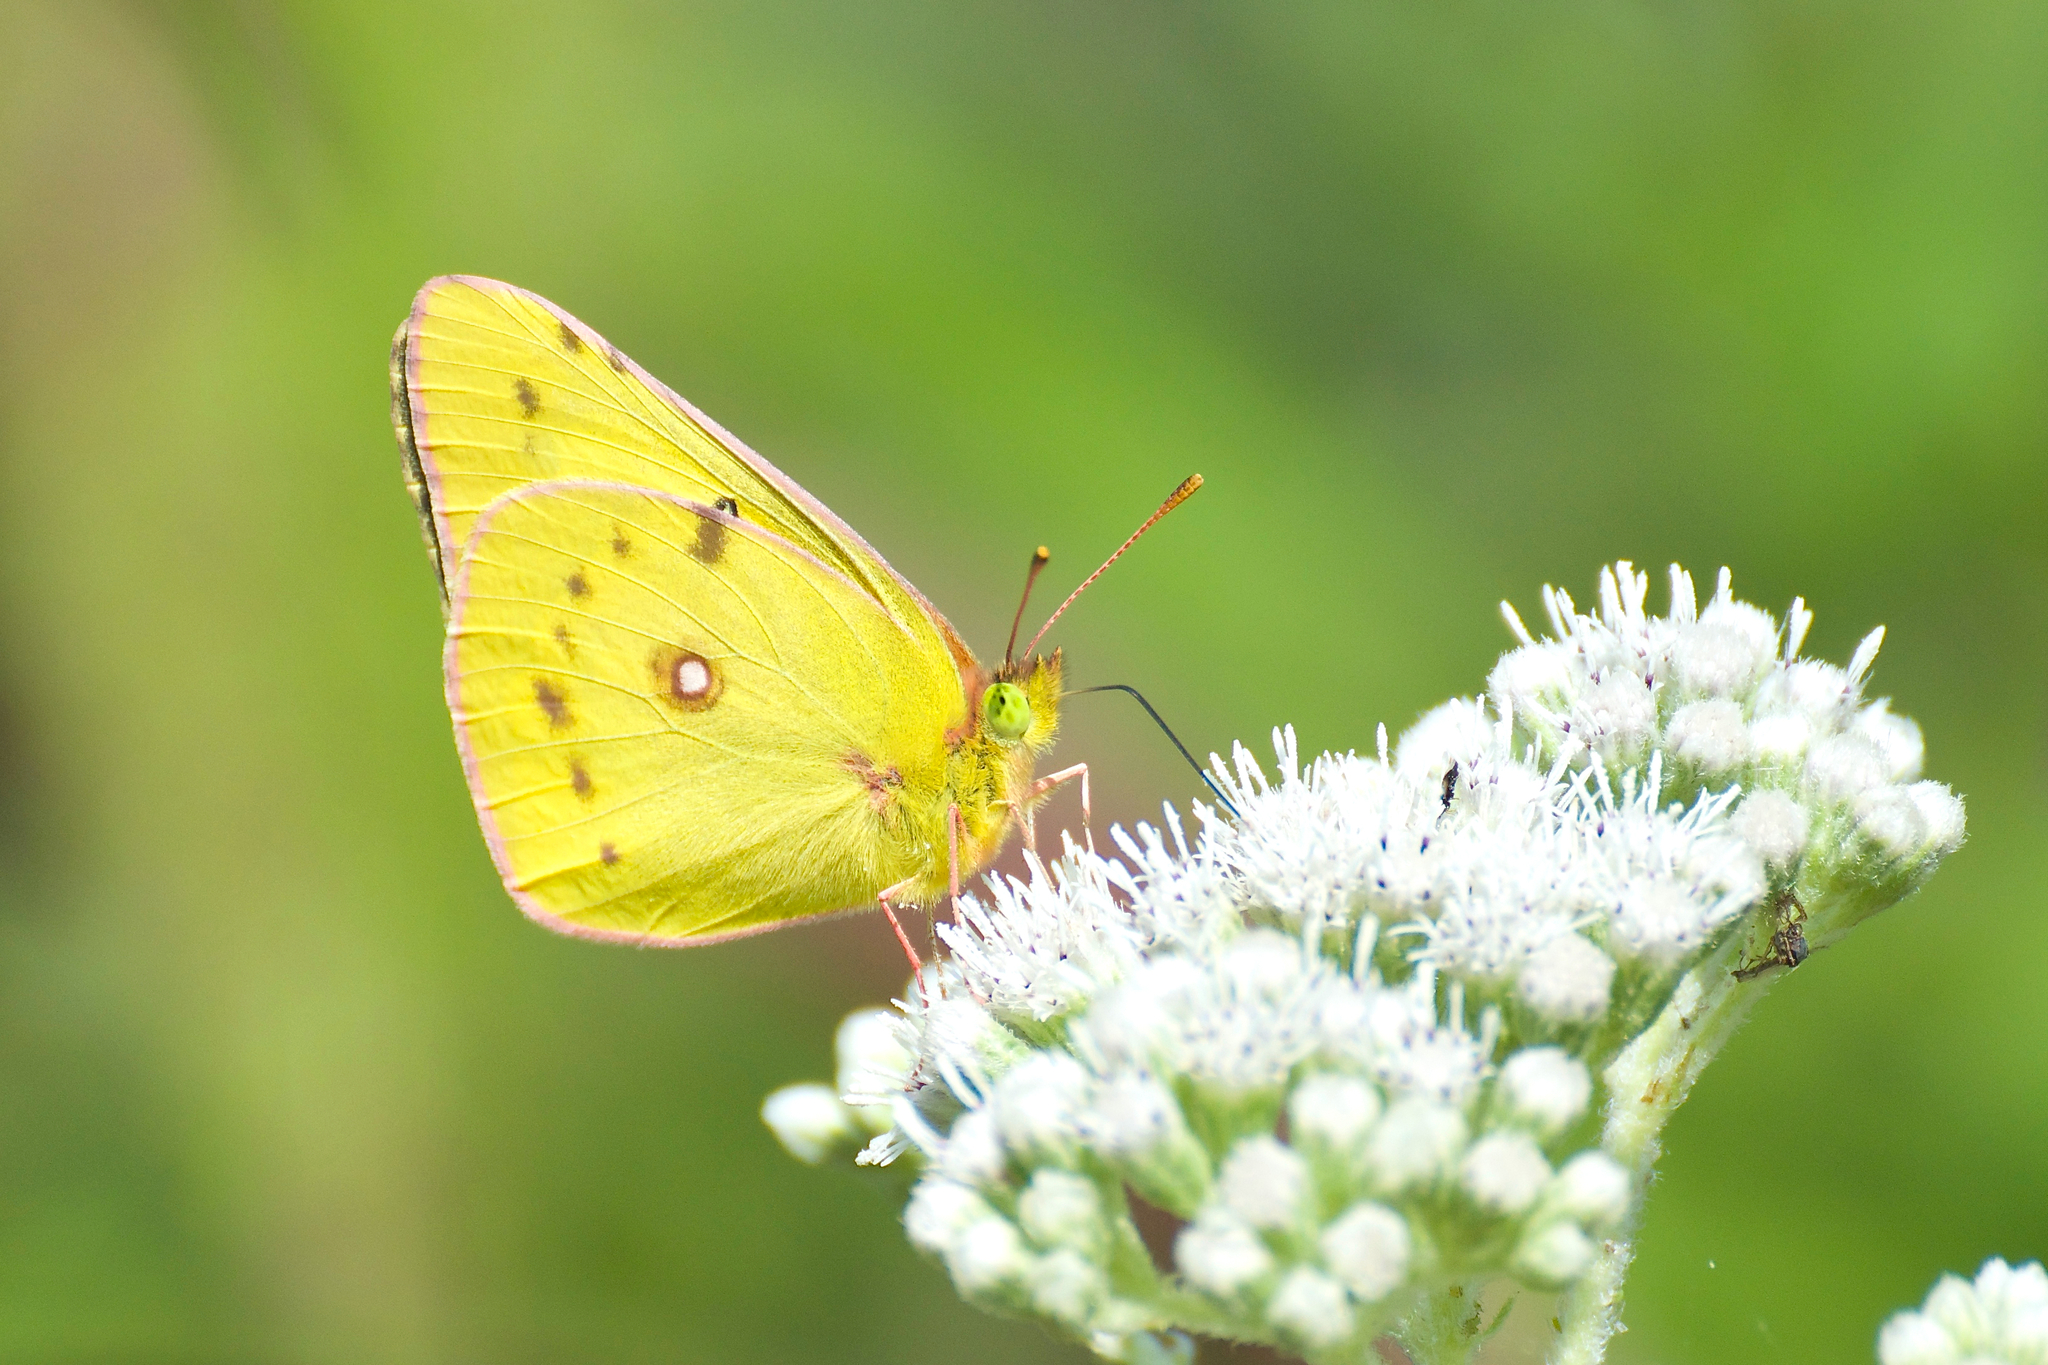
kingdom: Animalia
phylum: Arthropoda
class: Insecta
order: Lepidoptera
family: Pieridae
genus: Colias
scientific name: Colias eurytheme
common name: Alfalfa butterfly
